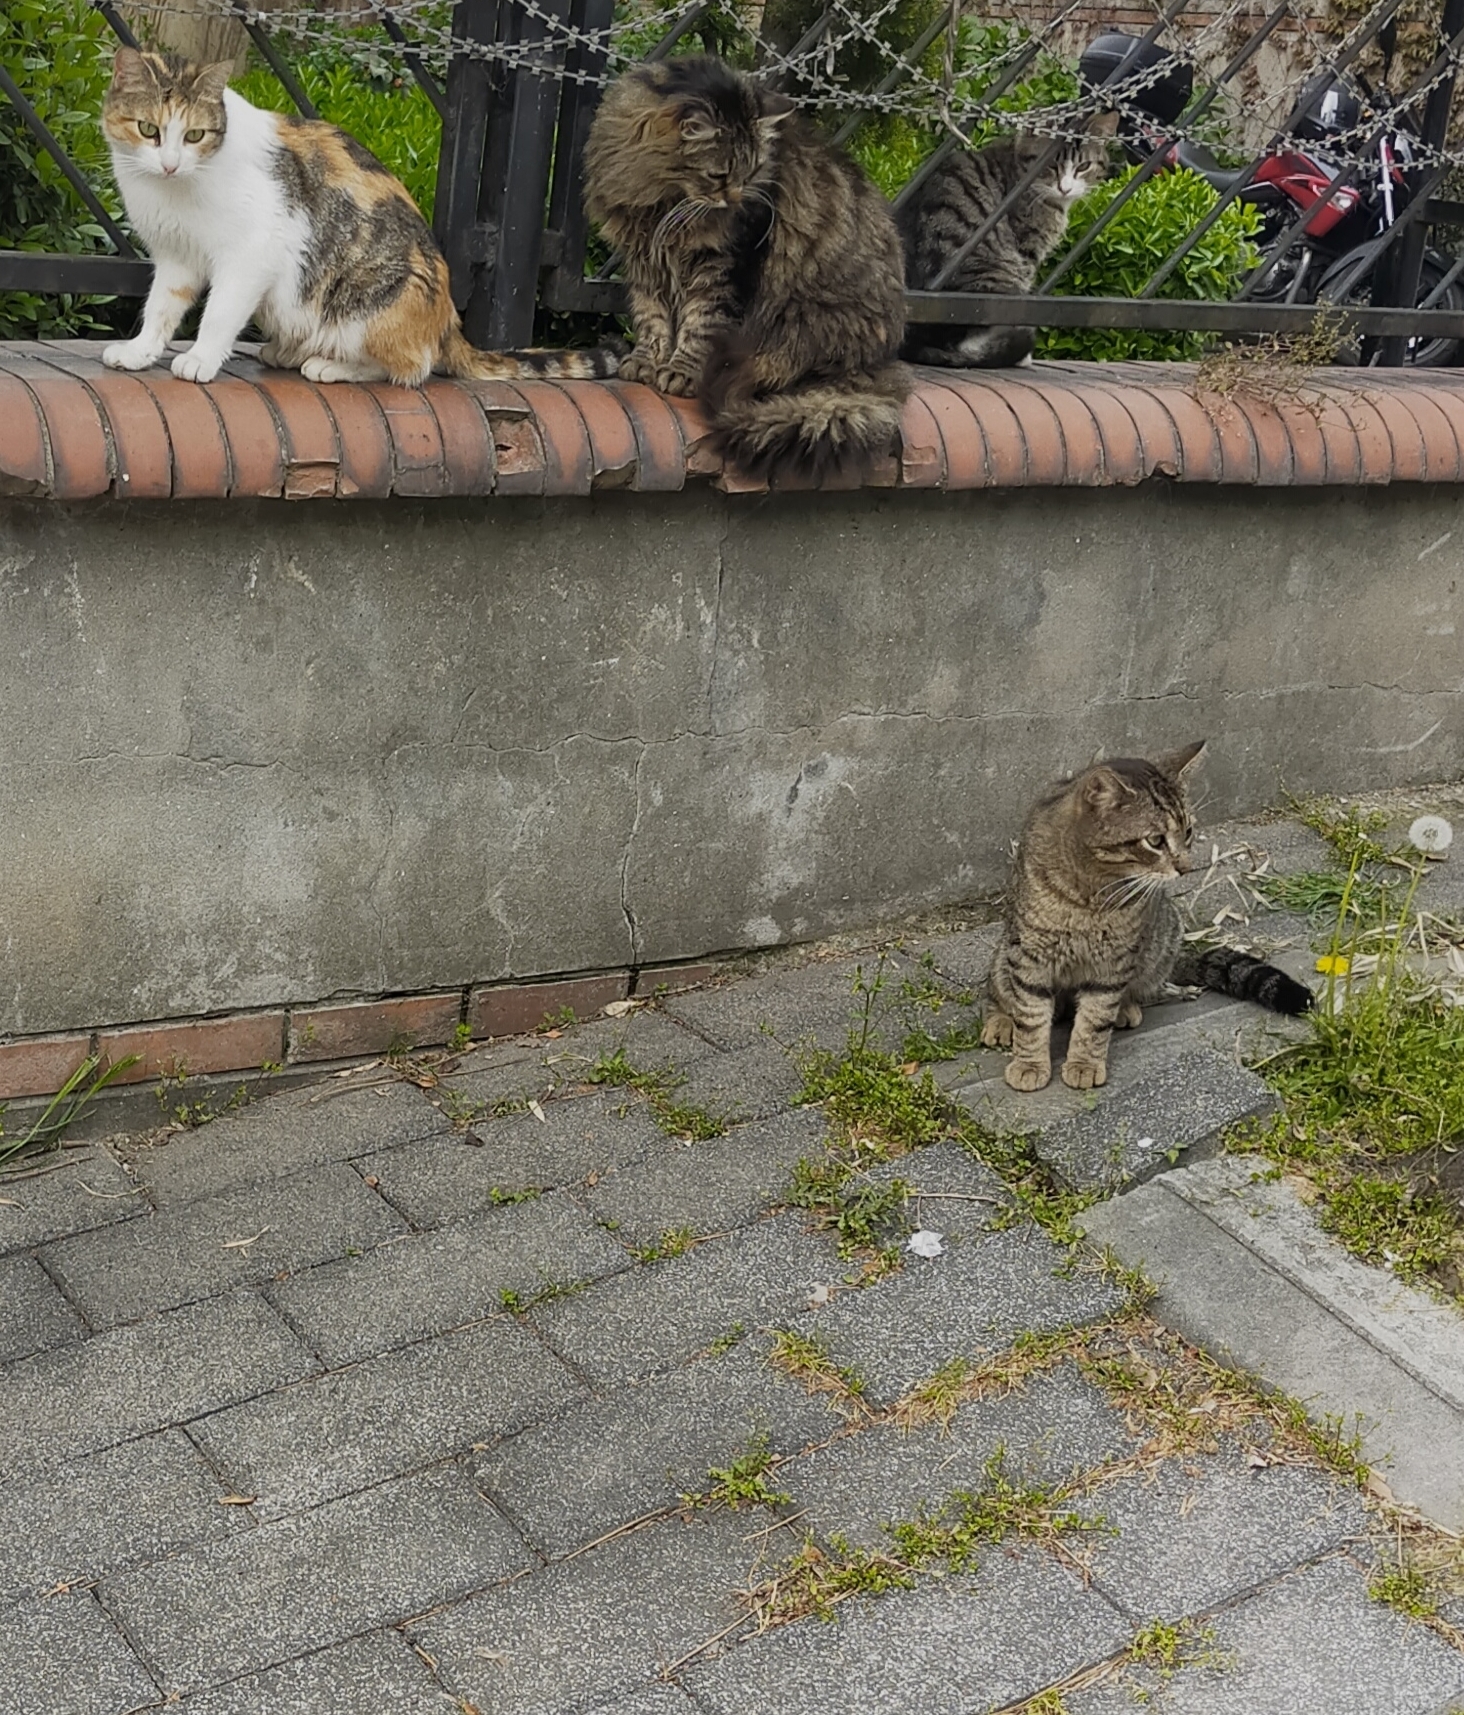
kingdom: Animalia
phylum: Chordata
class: Mammalia
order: Carnivora
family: Felidae
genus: Felis
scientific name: Felis catus
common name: Domestic cat
